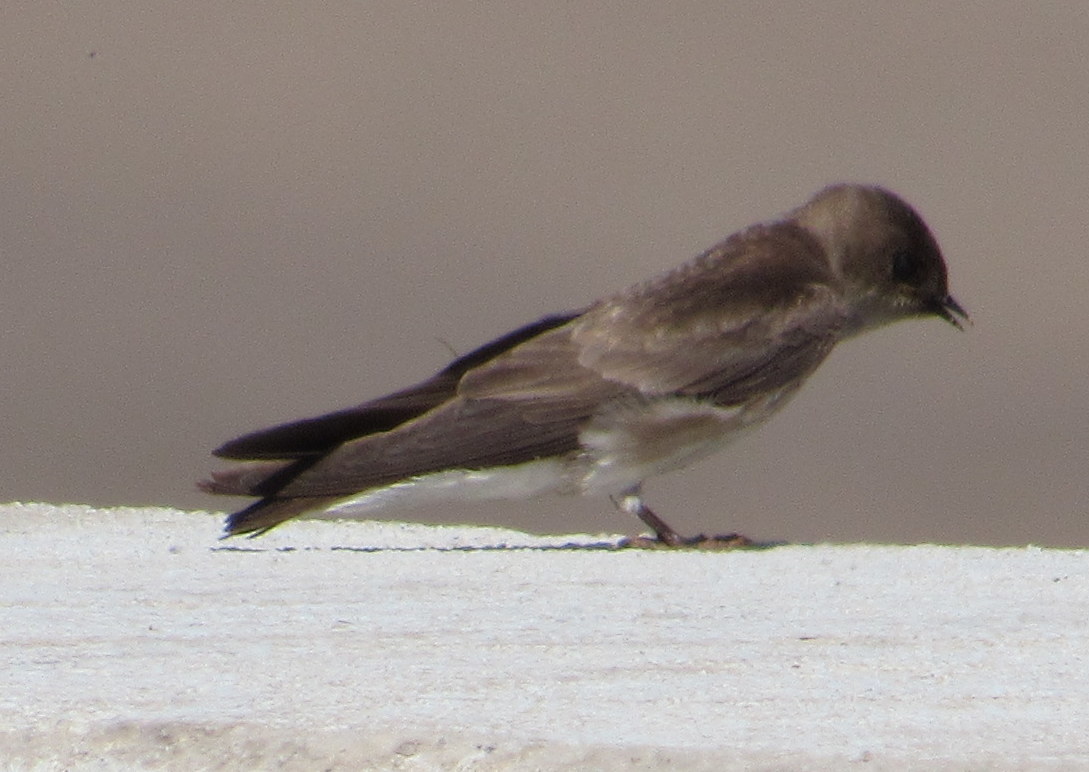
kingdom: Animalia
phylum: Chordata
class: Aves
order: Passeriformes
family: Hirundinidae
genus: Stelgidopteryx
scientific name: Stelgidopteryx serripennis
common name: Northern rough-winged swallow
